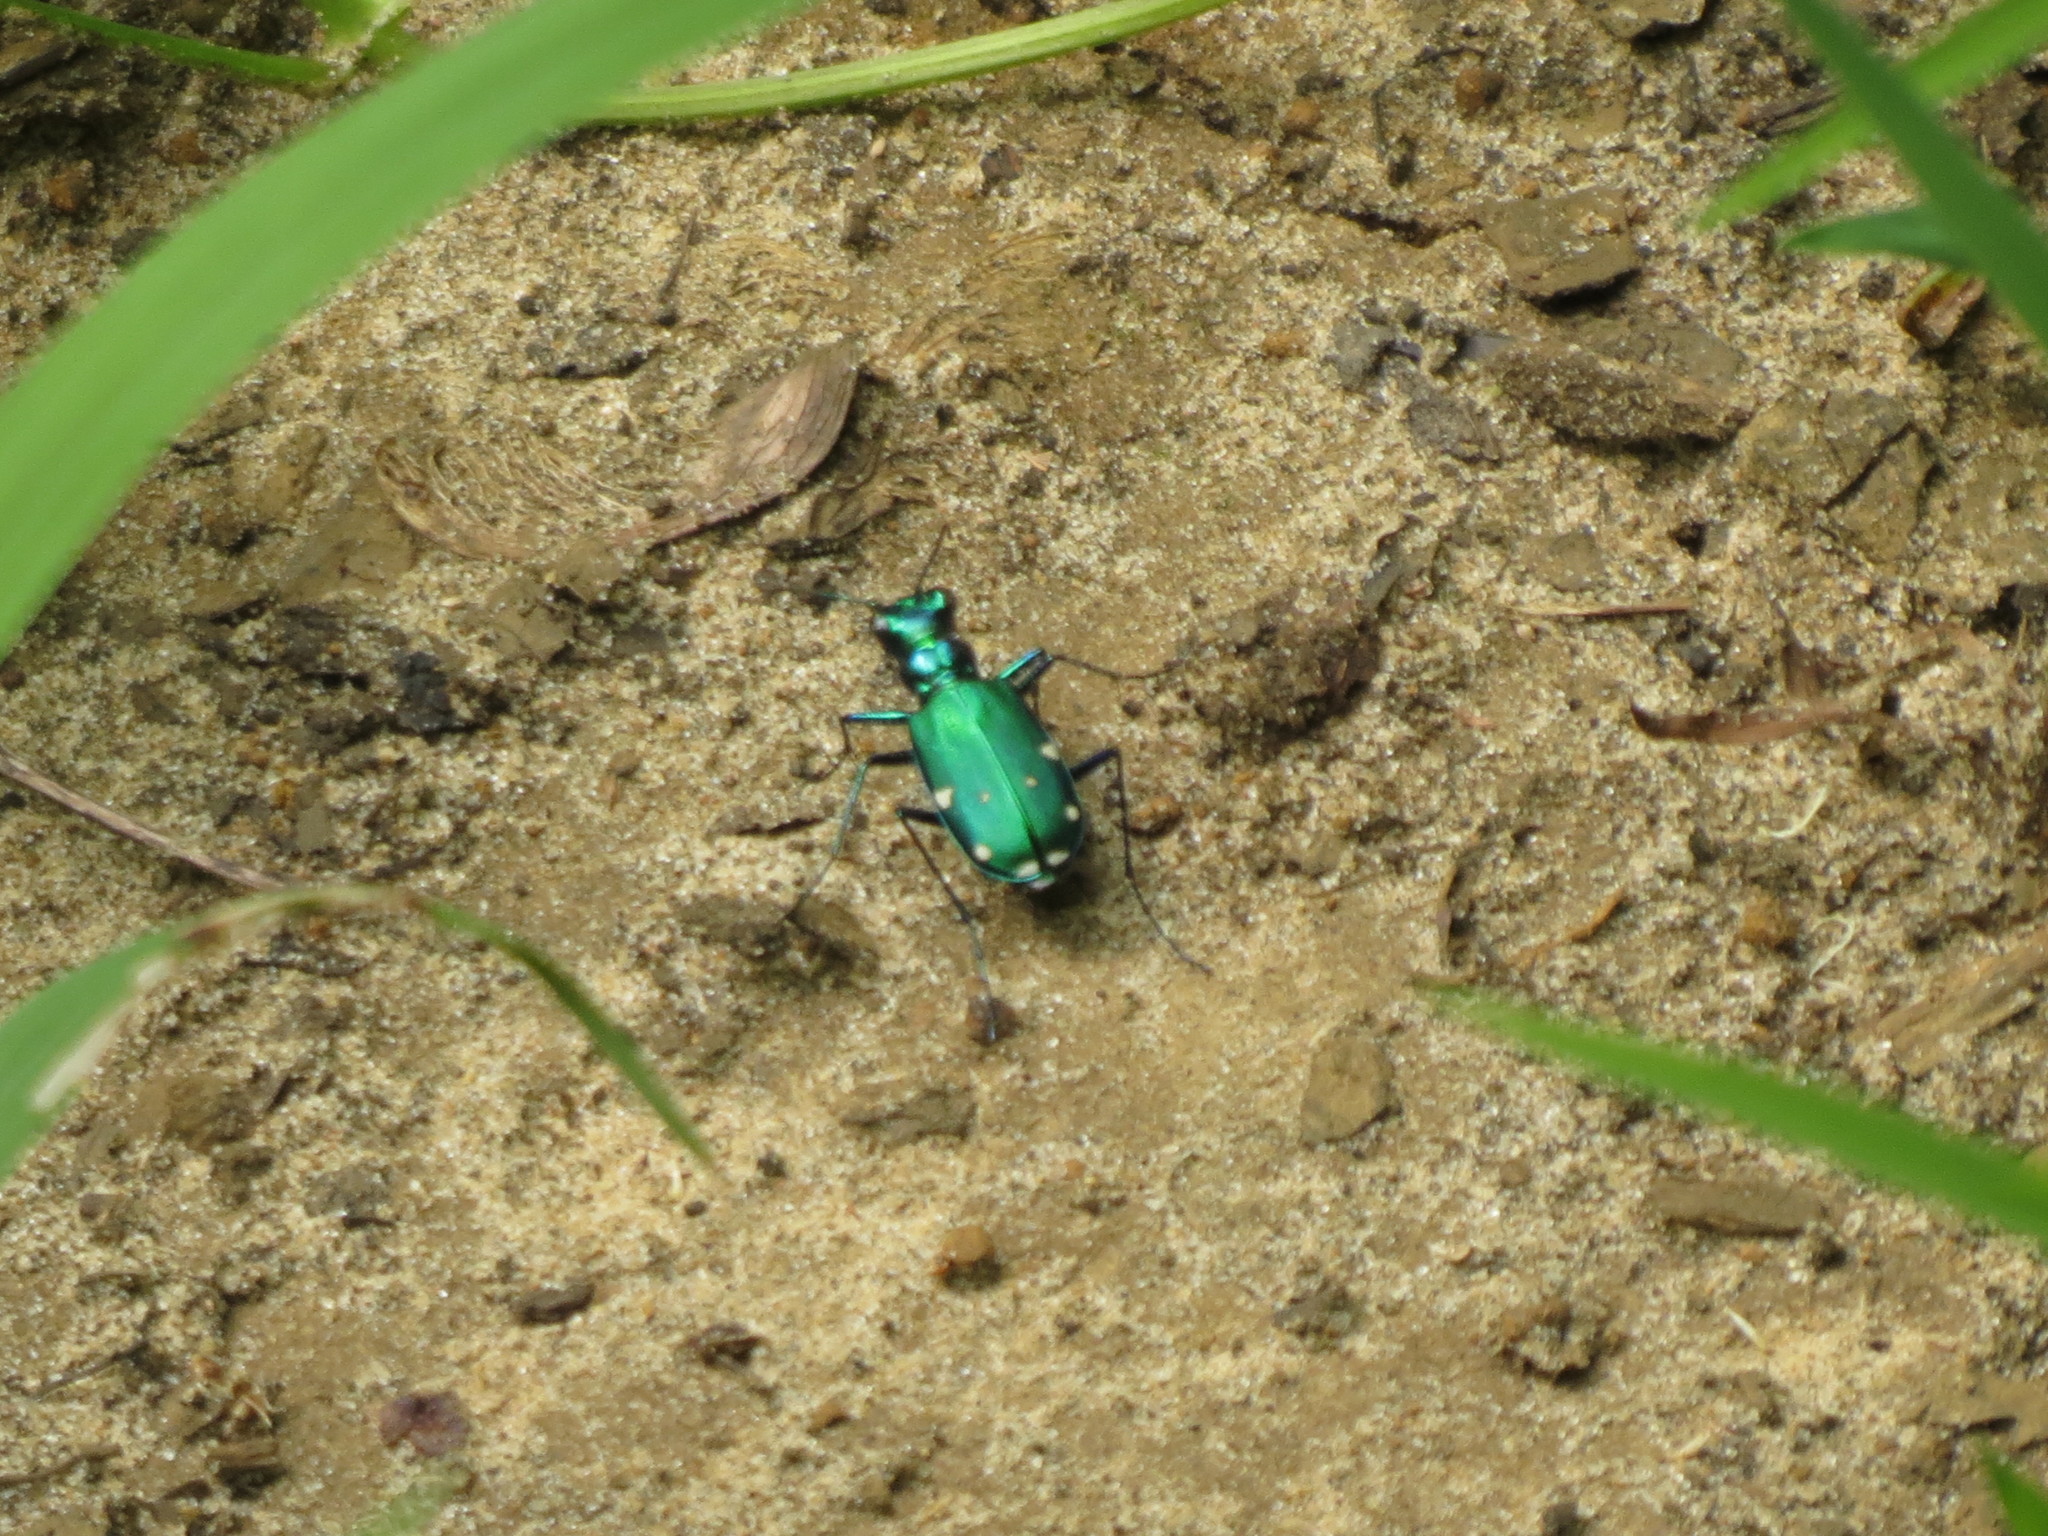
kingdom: Animalia
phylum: Arthropoda
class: Insecta
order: Coleoptera
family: Carabidae
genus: Cicindela
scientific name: Cicindela sexguttata
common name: Six-spotted tiger beetle
